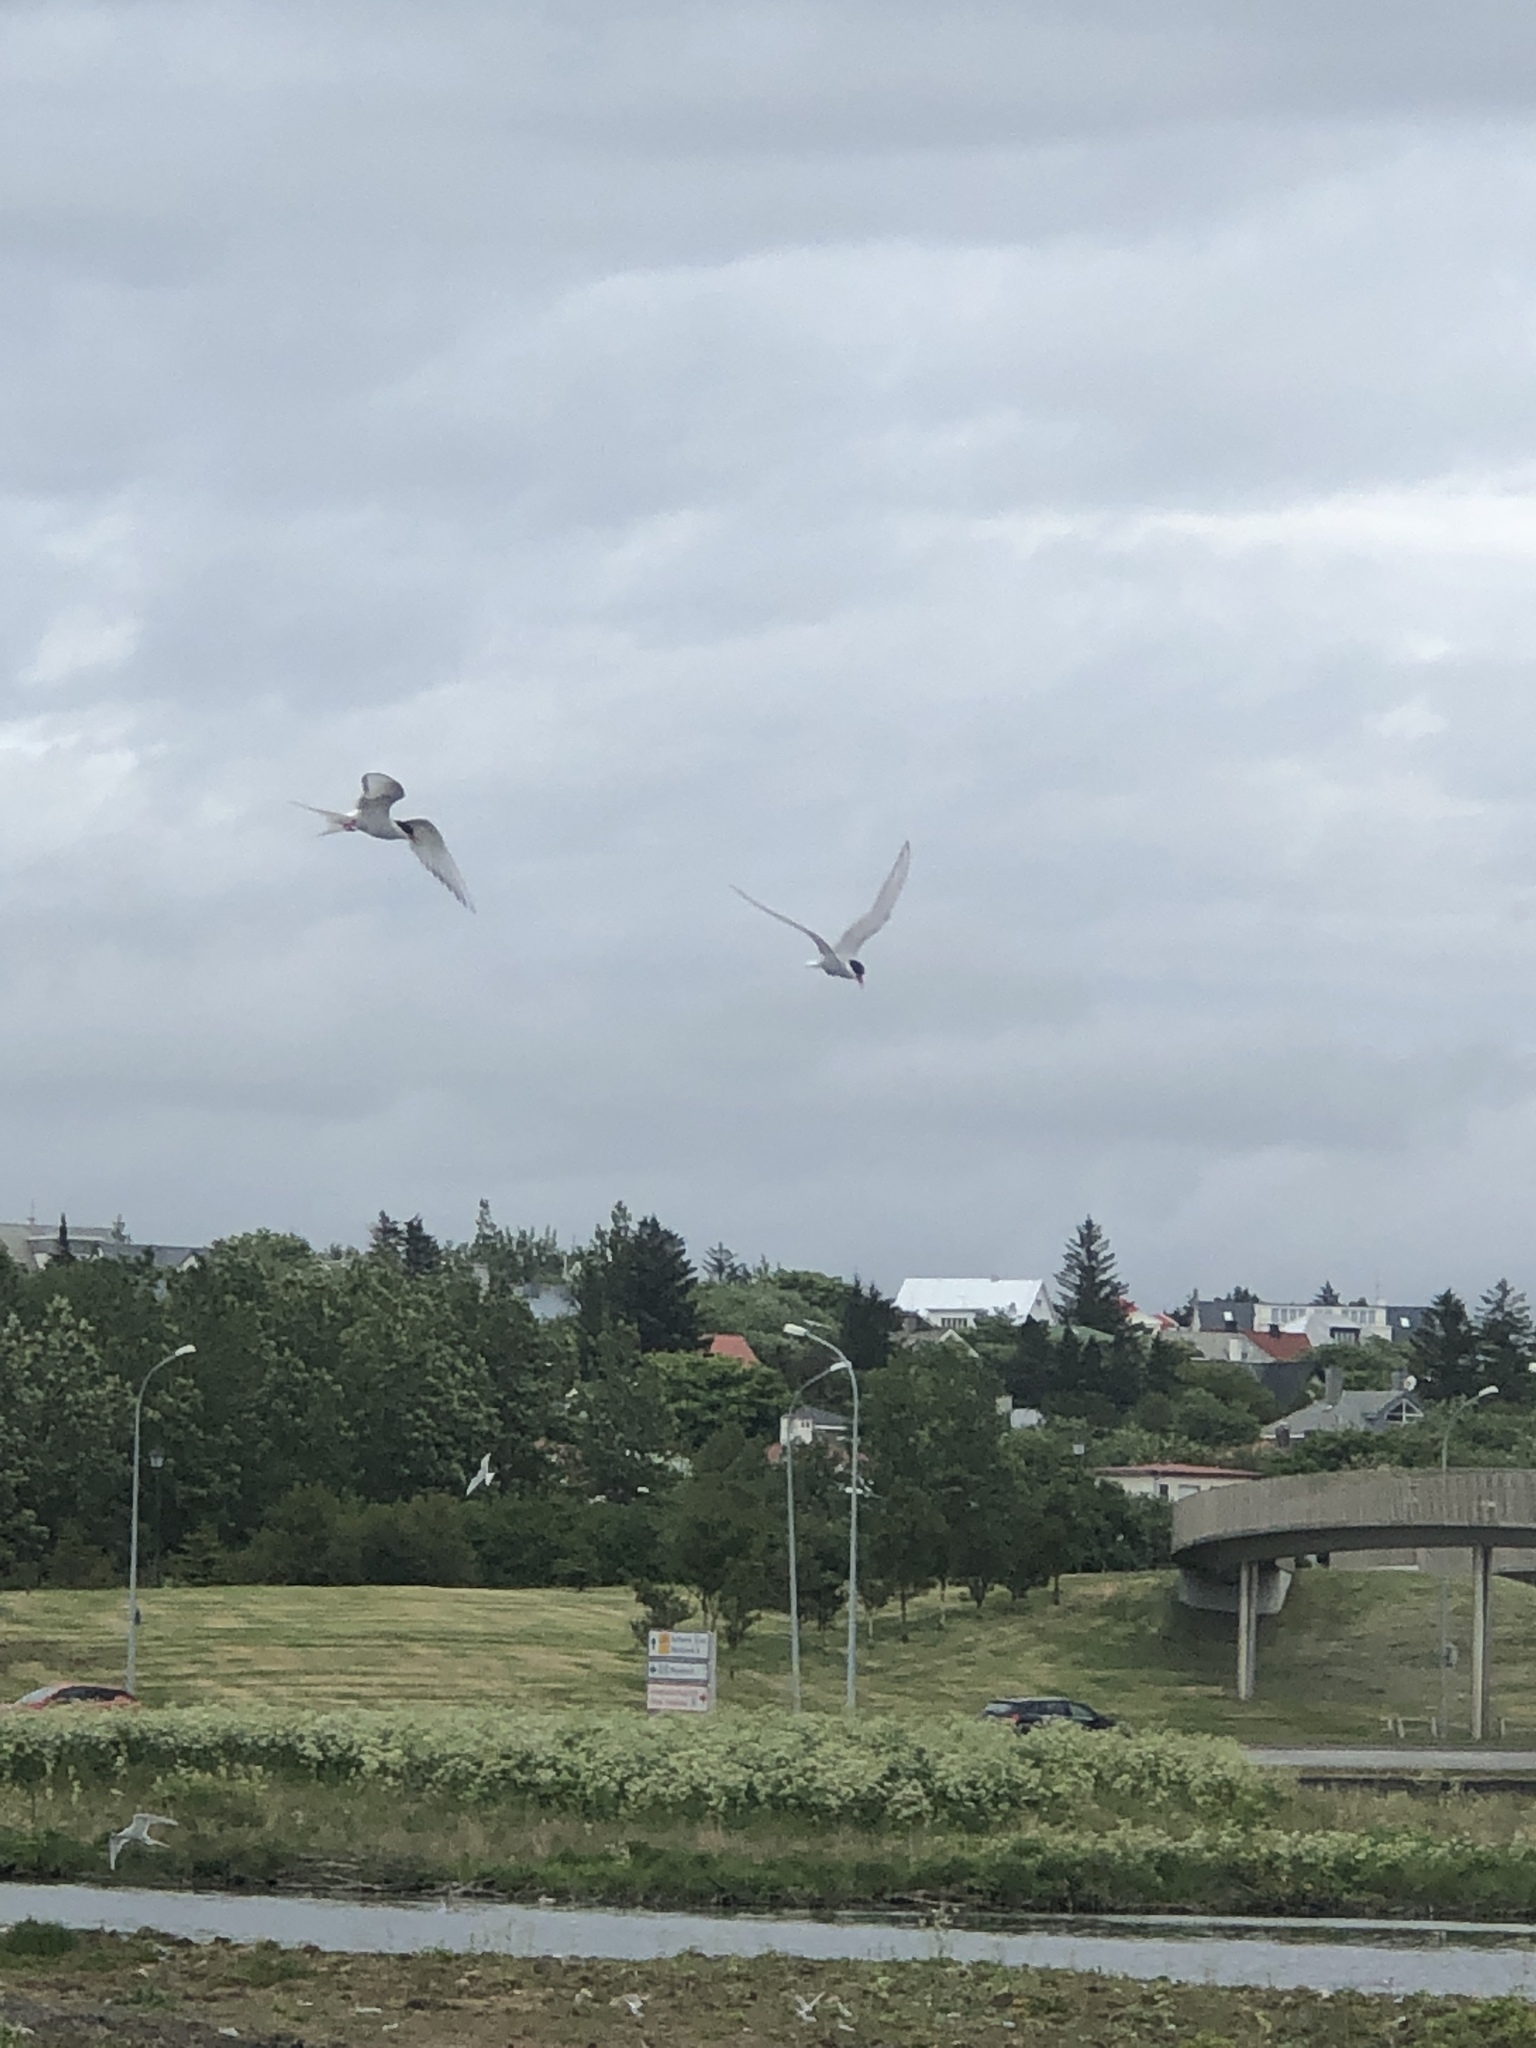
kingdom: Animalia
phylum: Chordata
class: Aves
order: Charadriiformes
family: Laridae
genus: Sterna
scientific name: Sterna paradisaea
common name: Arctic tern
